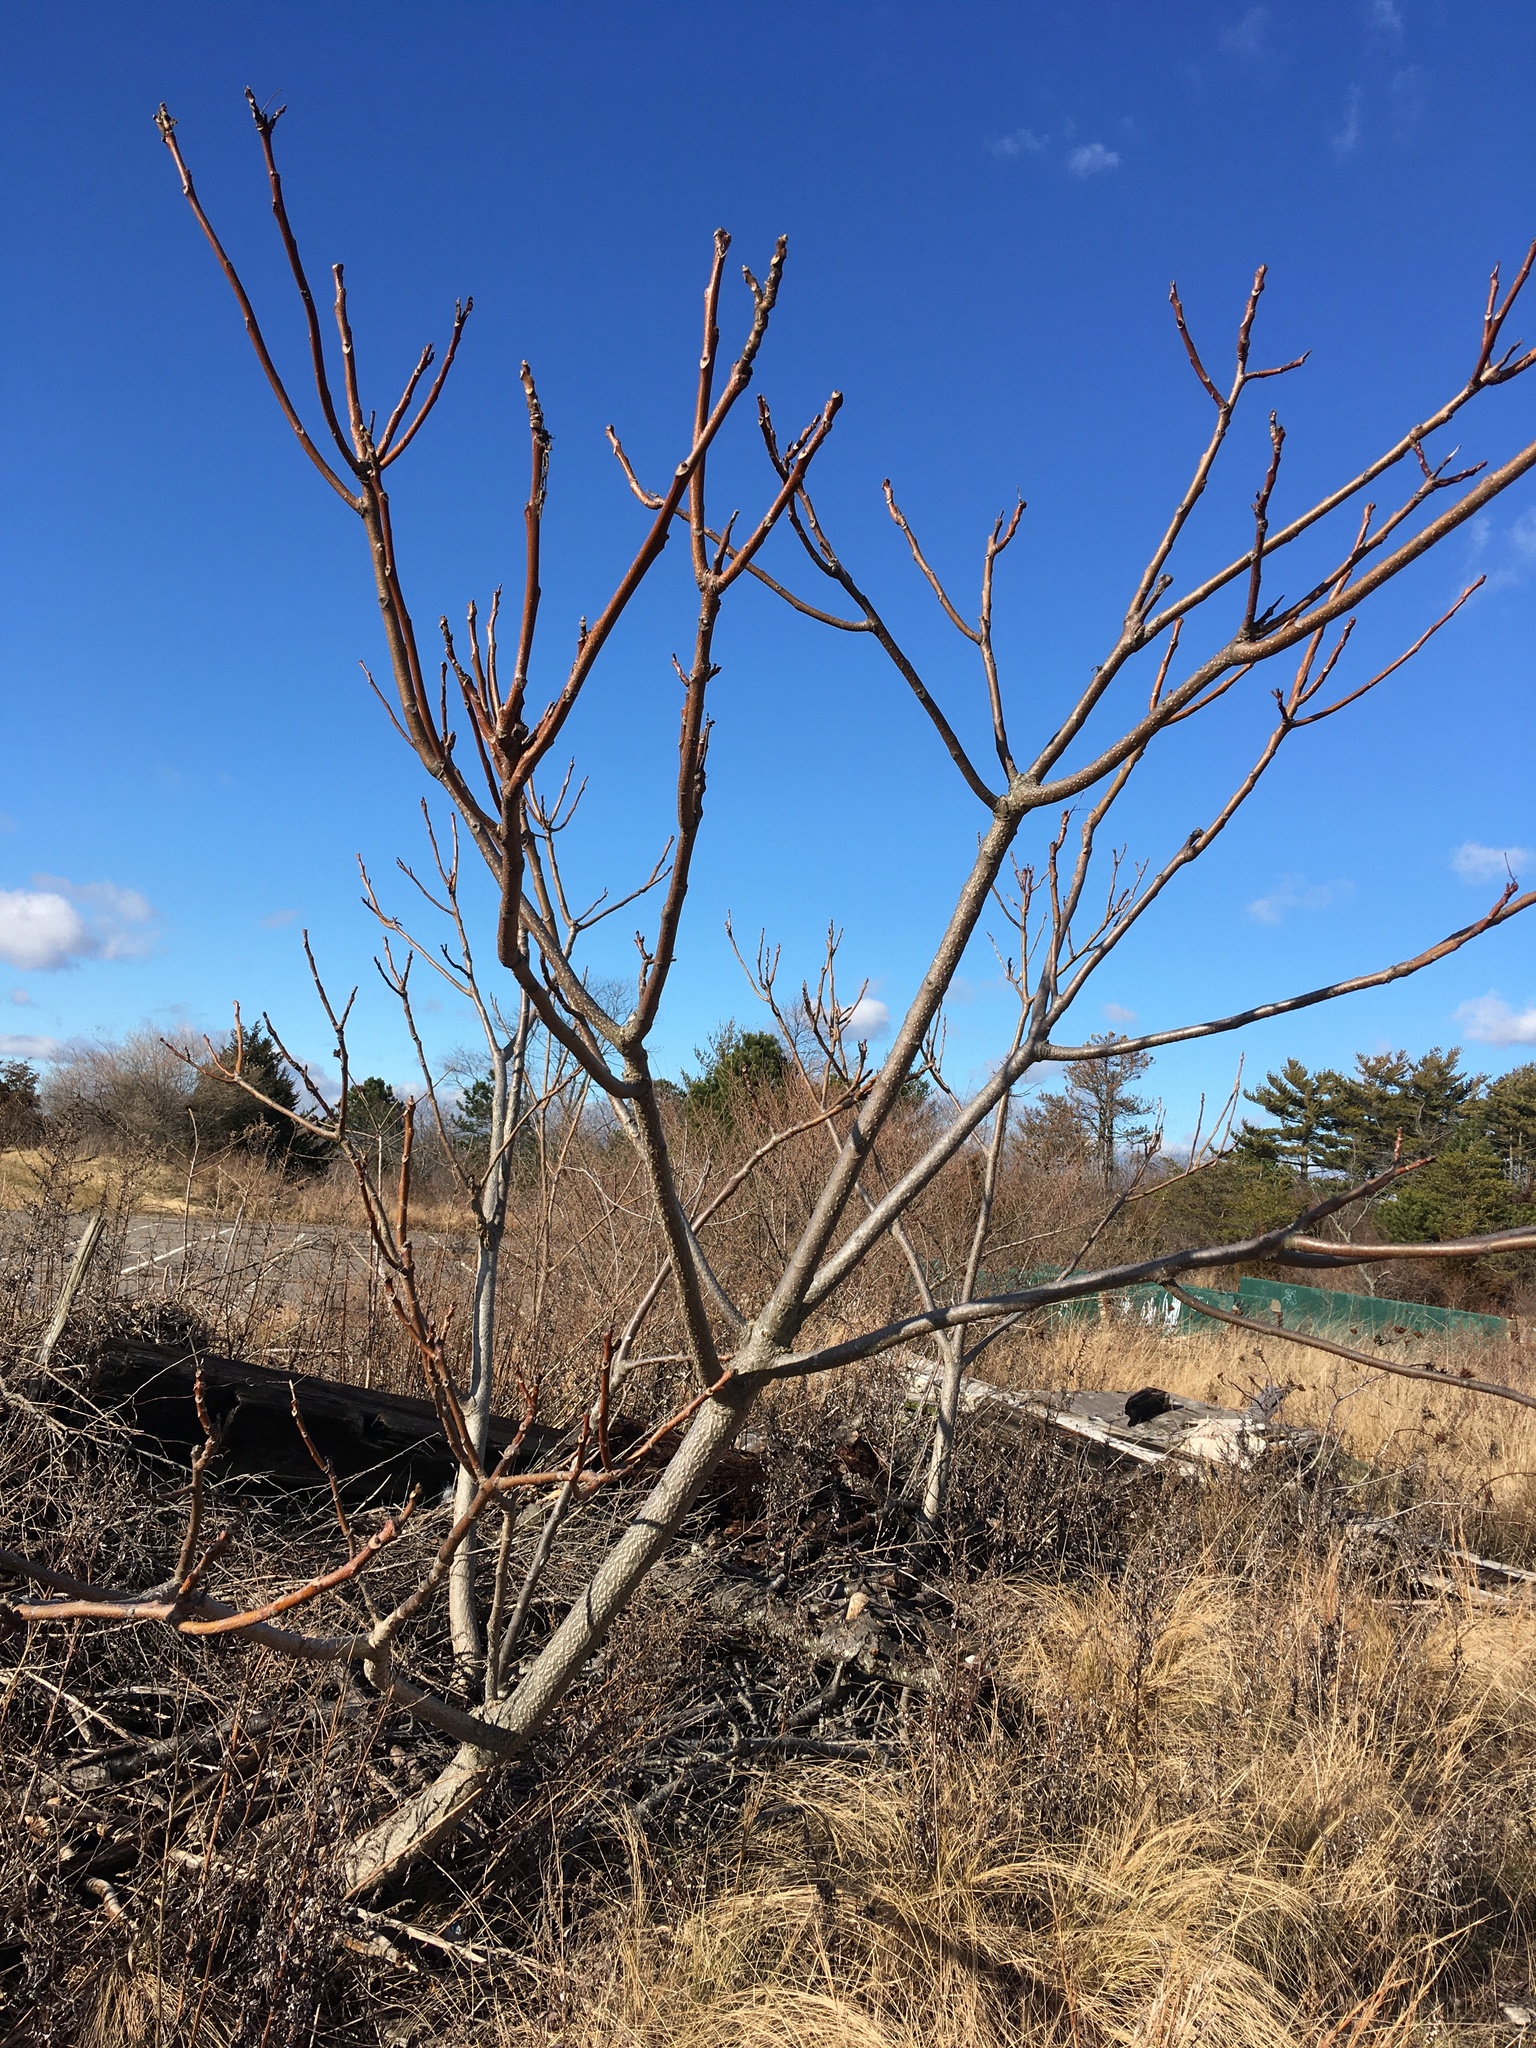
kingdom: Plantae
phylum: Tracheophyta
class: Magnoliopsida
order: Sapindales
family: Simaroubaceae
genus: Ailanthus
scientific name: Ailanthus altissima
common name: Tree-of-heaven
